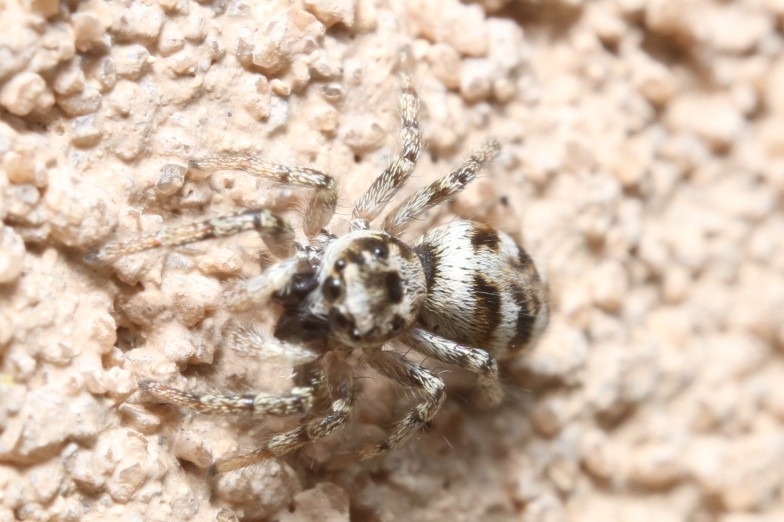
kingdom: Animalia
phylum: Arthropoda
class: Arachnida
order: Araneae
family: Salticidae
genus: Salticus
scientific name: Salticus scenicus
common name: Zebra jumper
